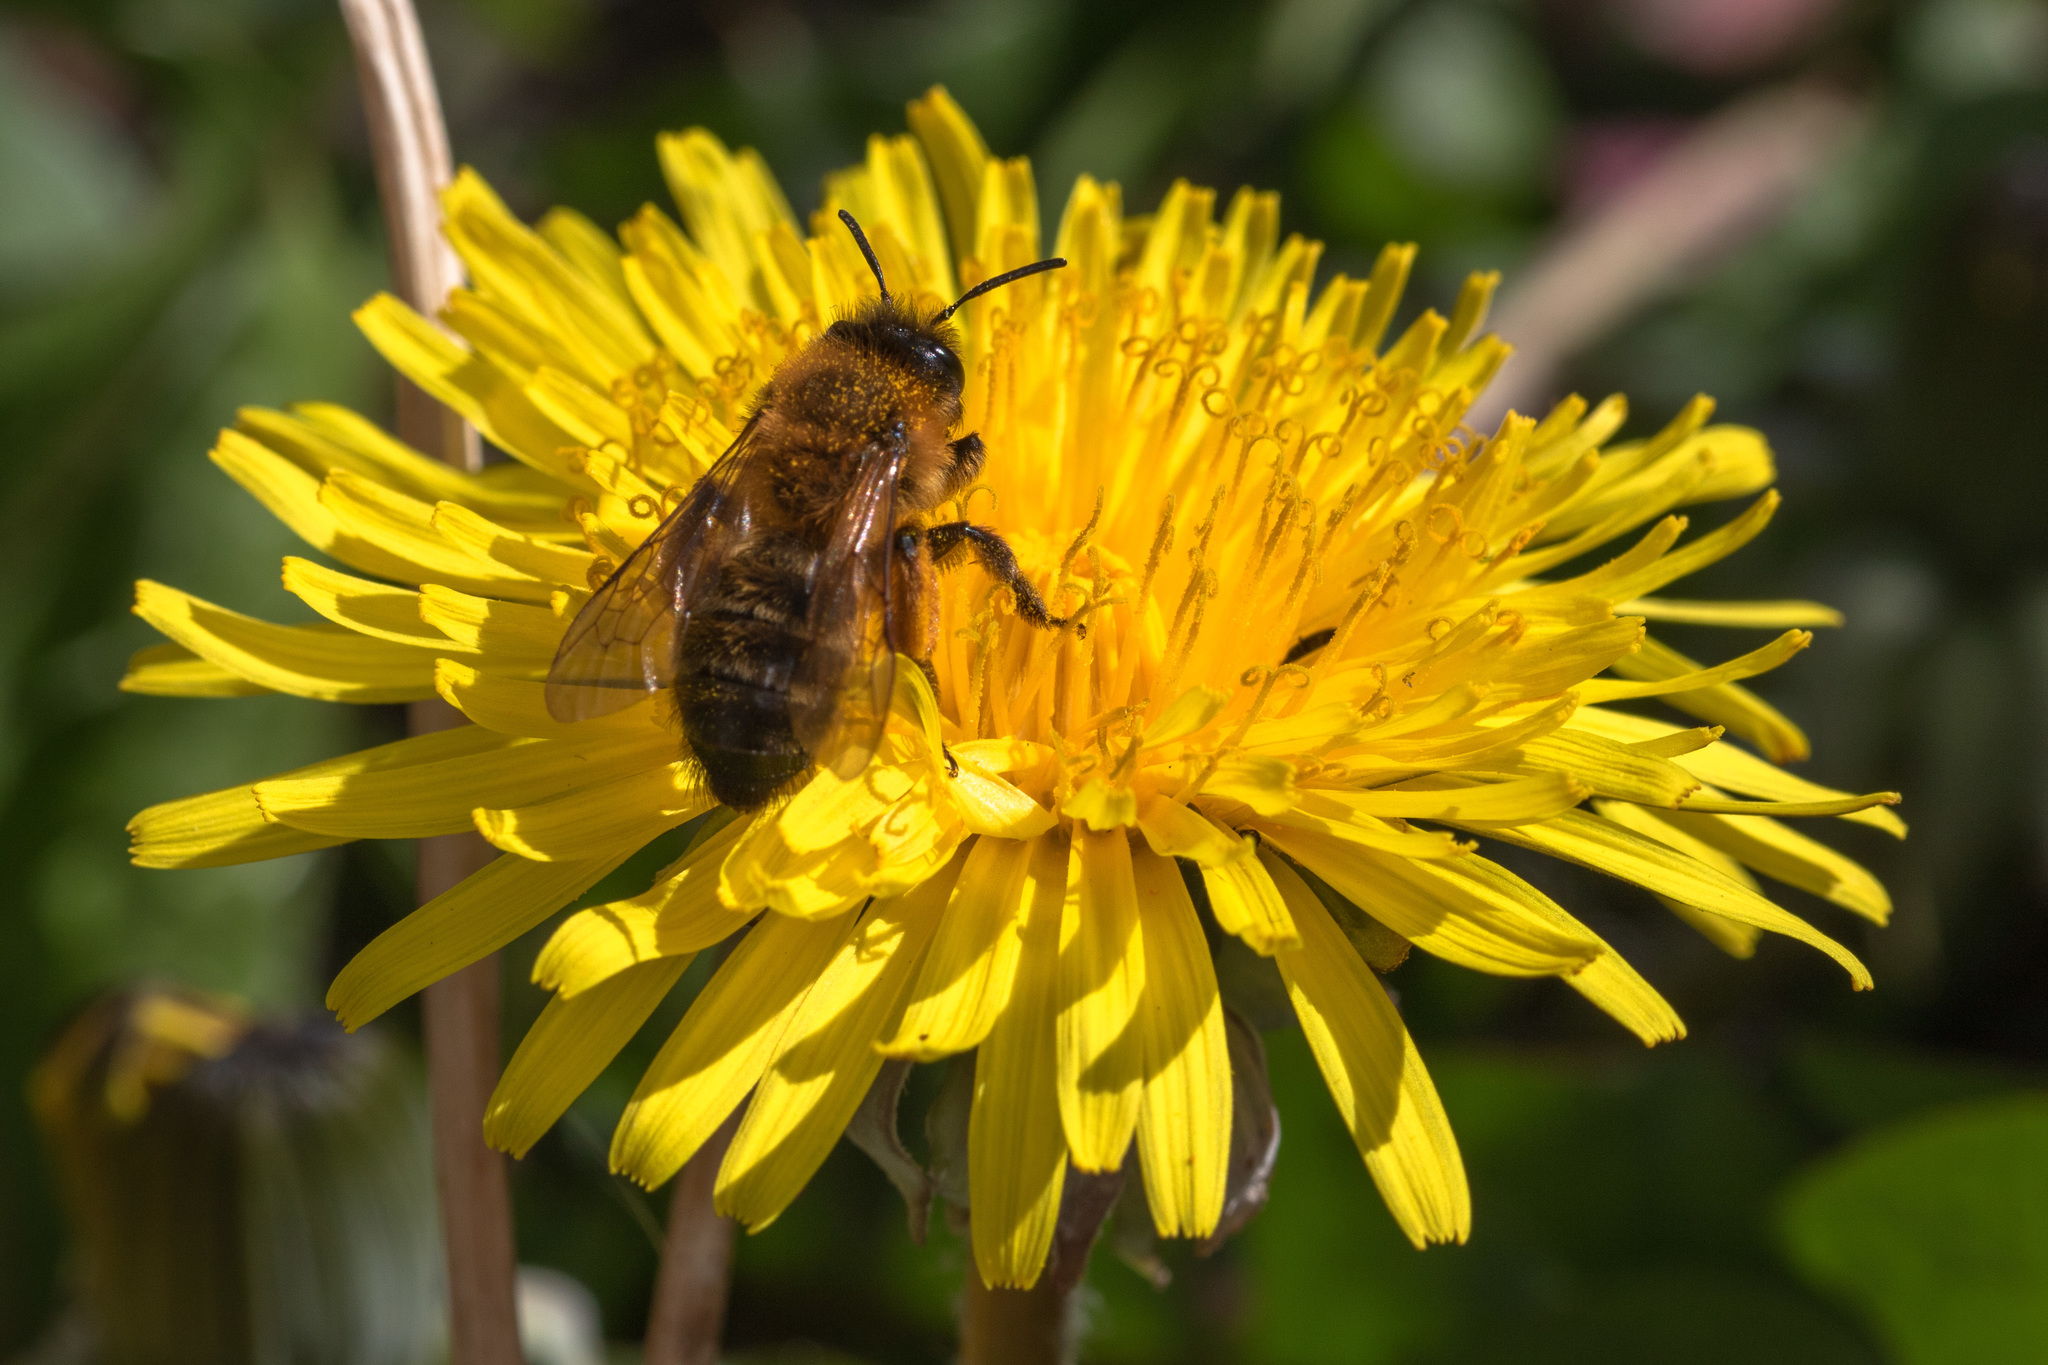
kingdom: Animalia
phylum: Arthropoda
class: Insecta
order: Hymenoptera
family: Andrenidae
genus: Andrena
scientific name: Andrena nigroaenea
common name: Buffish mining bee
